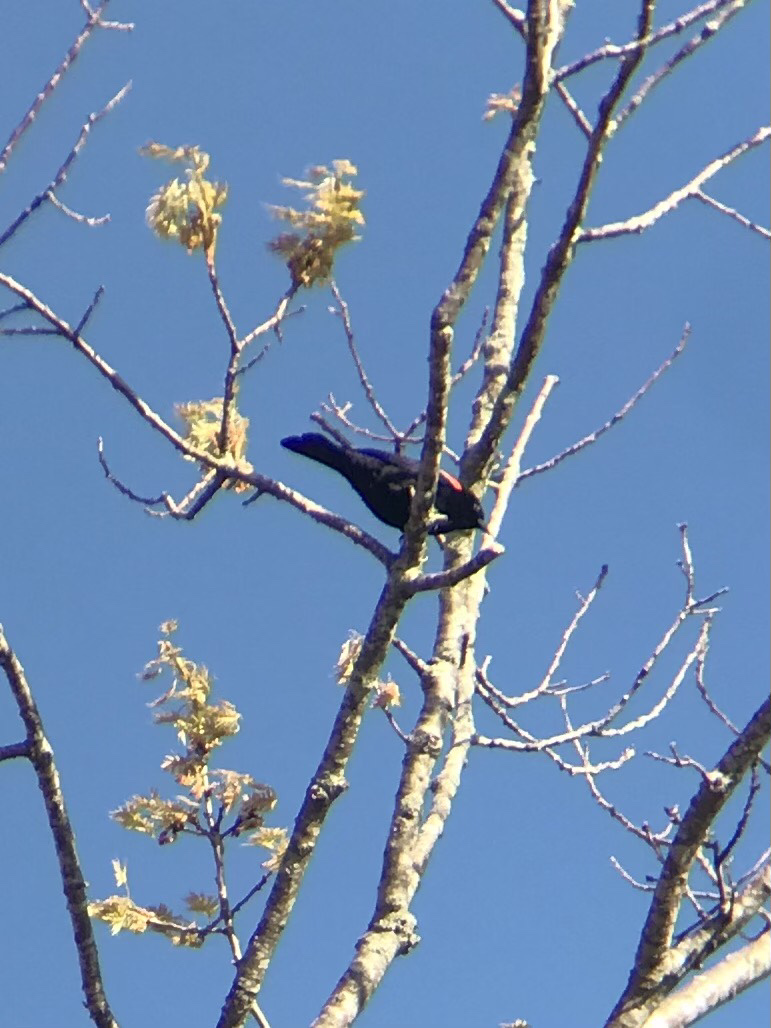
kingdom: Animalia
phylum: Chordata
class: Aves
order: Passeriformes
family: Icteridae
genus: Agelaius
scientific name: Agelaius phoeniceus
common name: Red-winged blackbird
